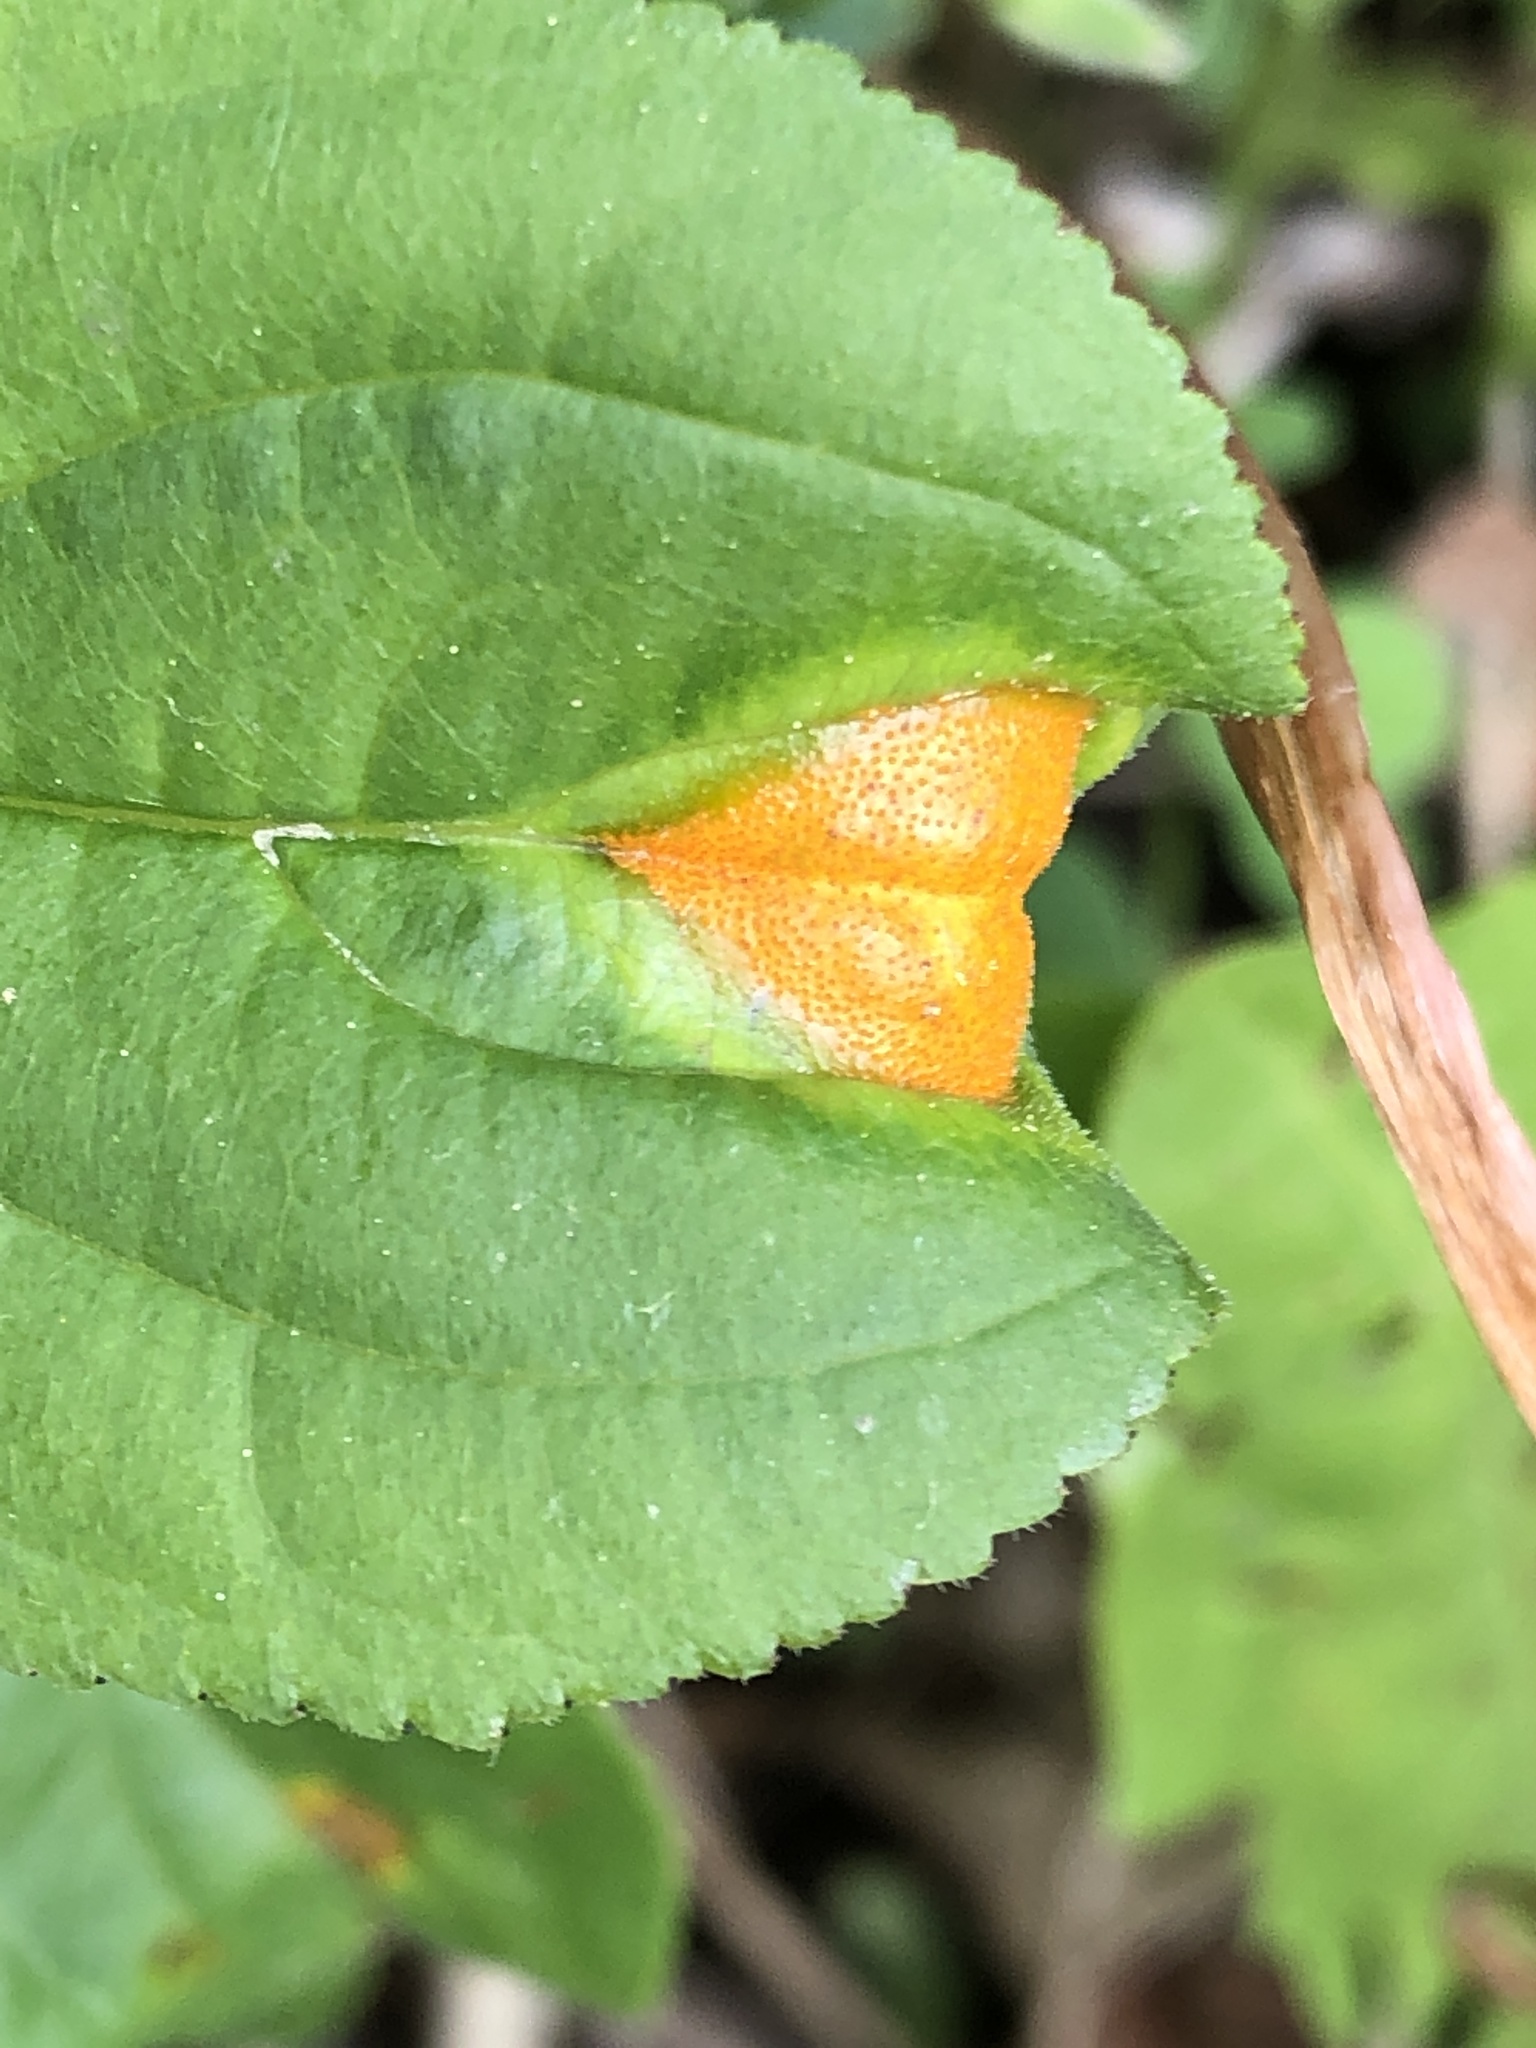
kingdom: Fungi
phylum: Basidiomycota
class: Pucciniomycetes
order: Pucciniales
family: Pucciniaceae
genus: Puccinia
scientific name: Puccinia coronata
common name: Crown rust
